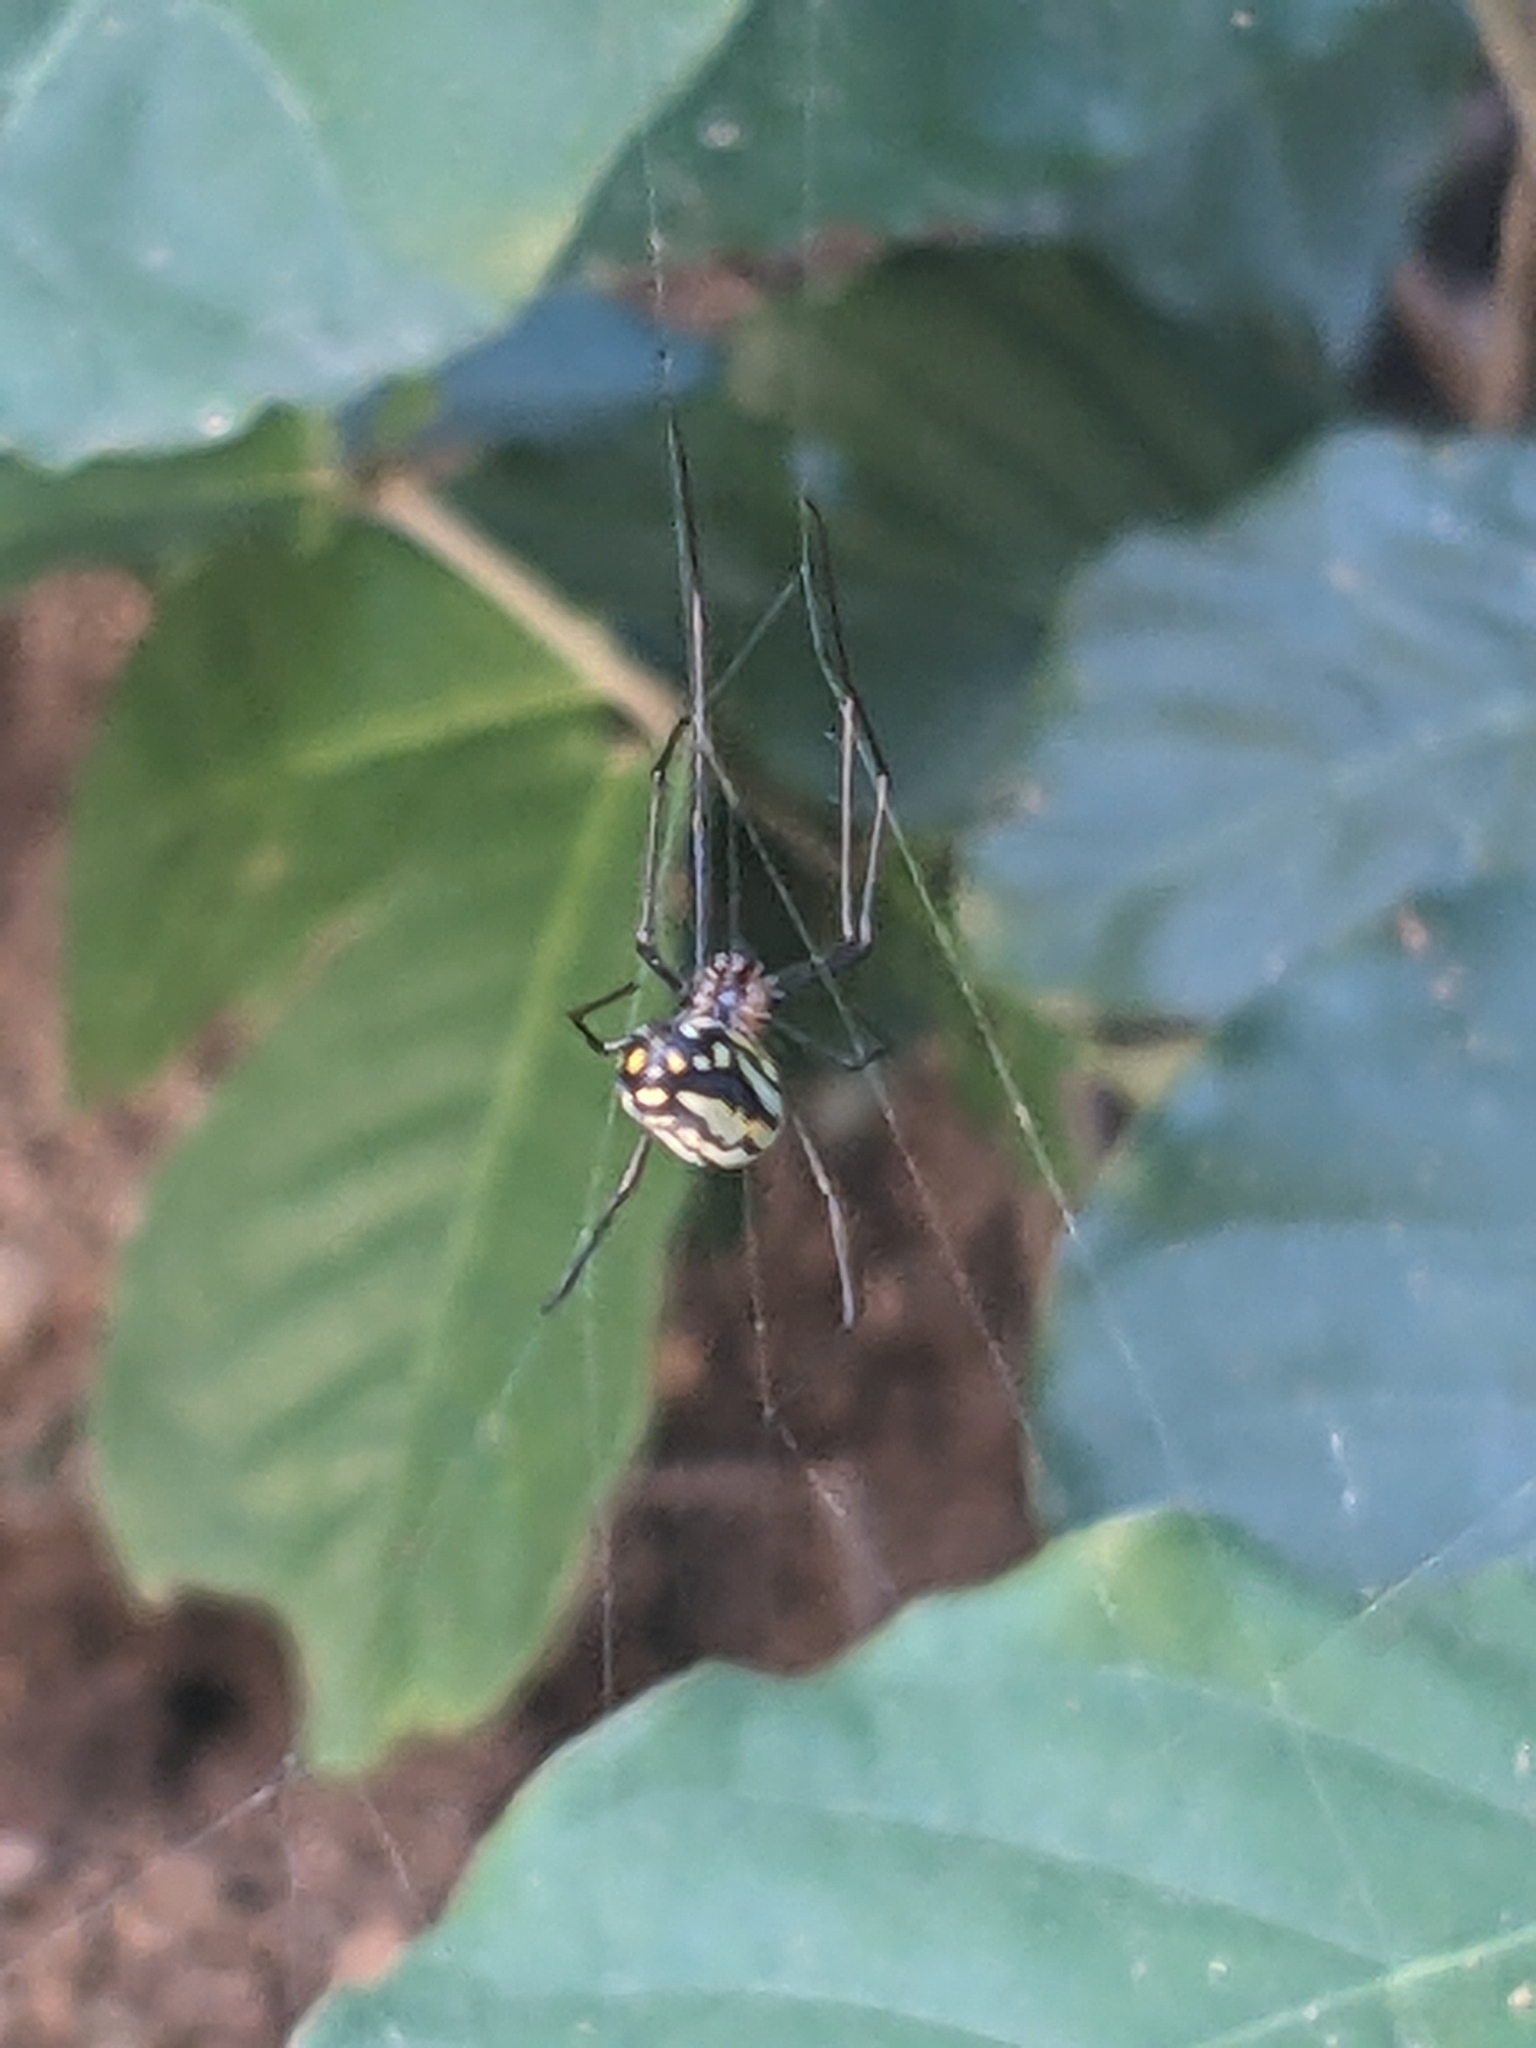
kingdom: Animalia
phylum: Arthropoda
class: Arachnida
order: Araneae
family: Tetragnathidae
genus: Leucauge
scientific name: Leucauge argyra
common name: Longjawed orb weavers
